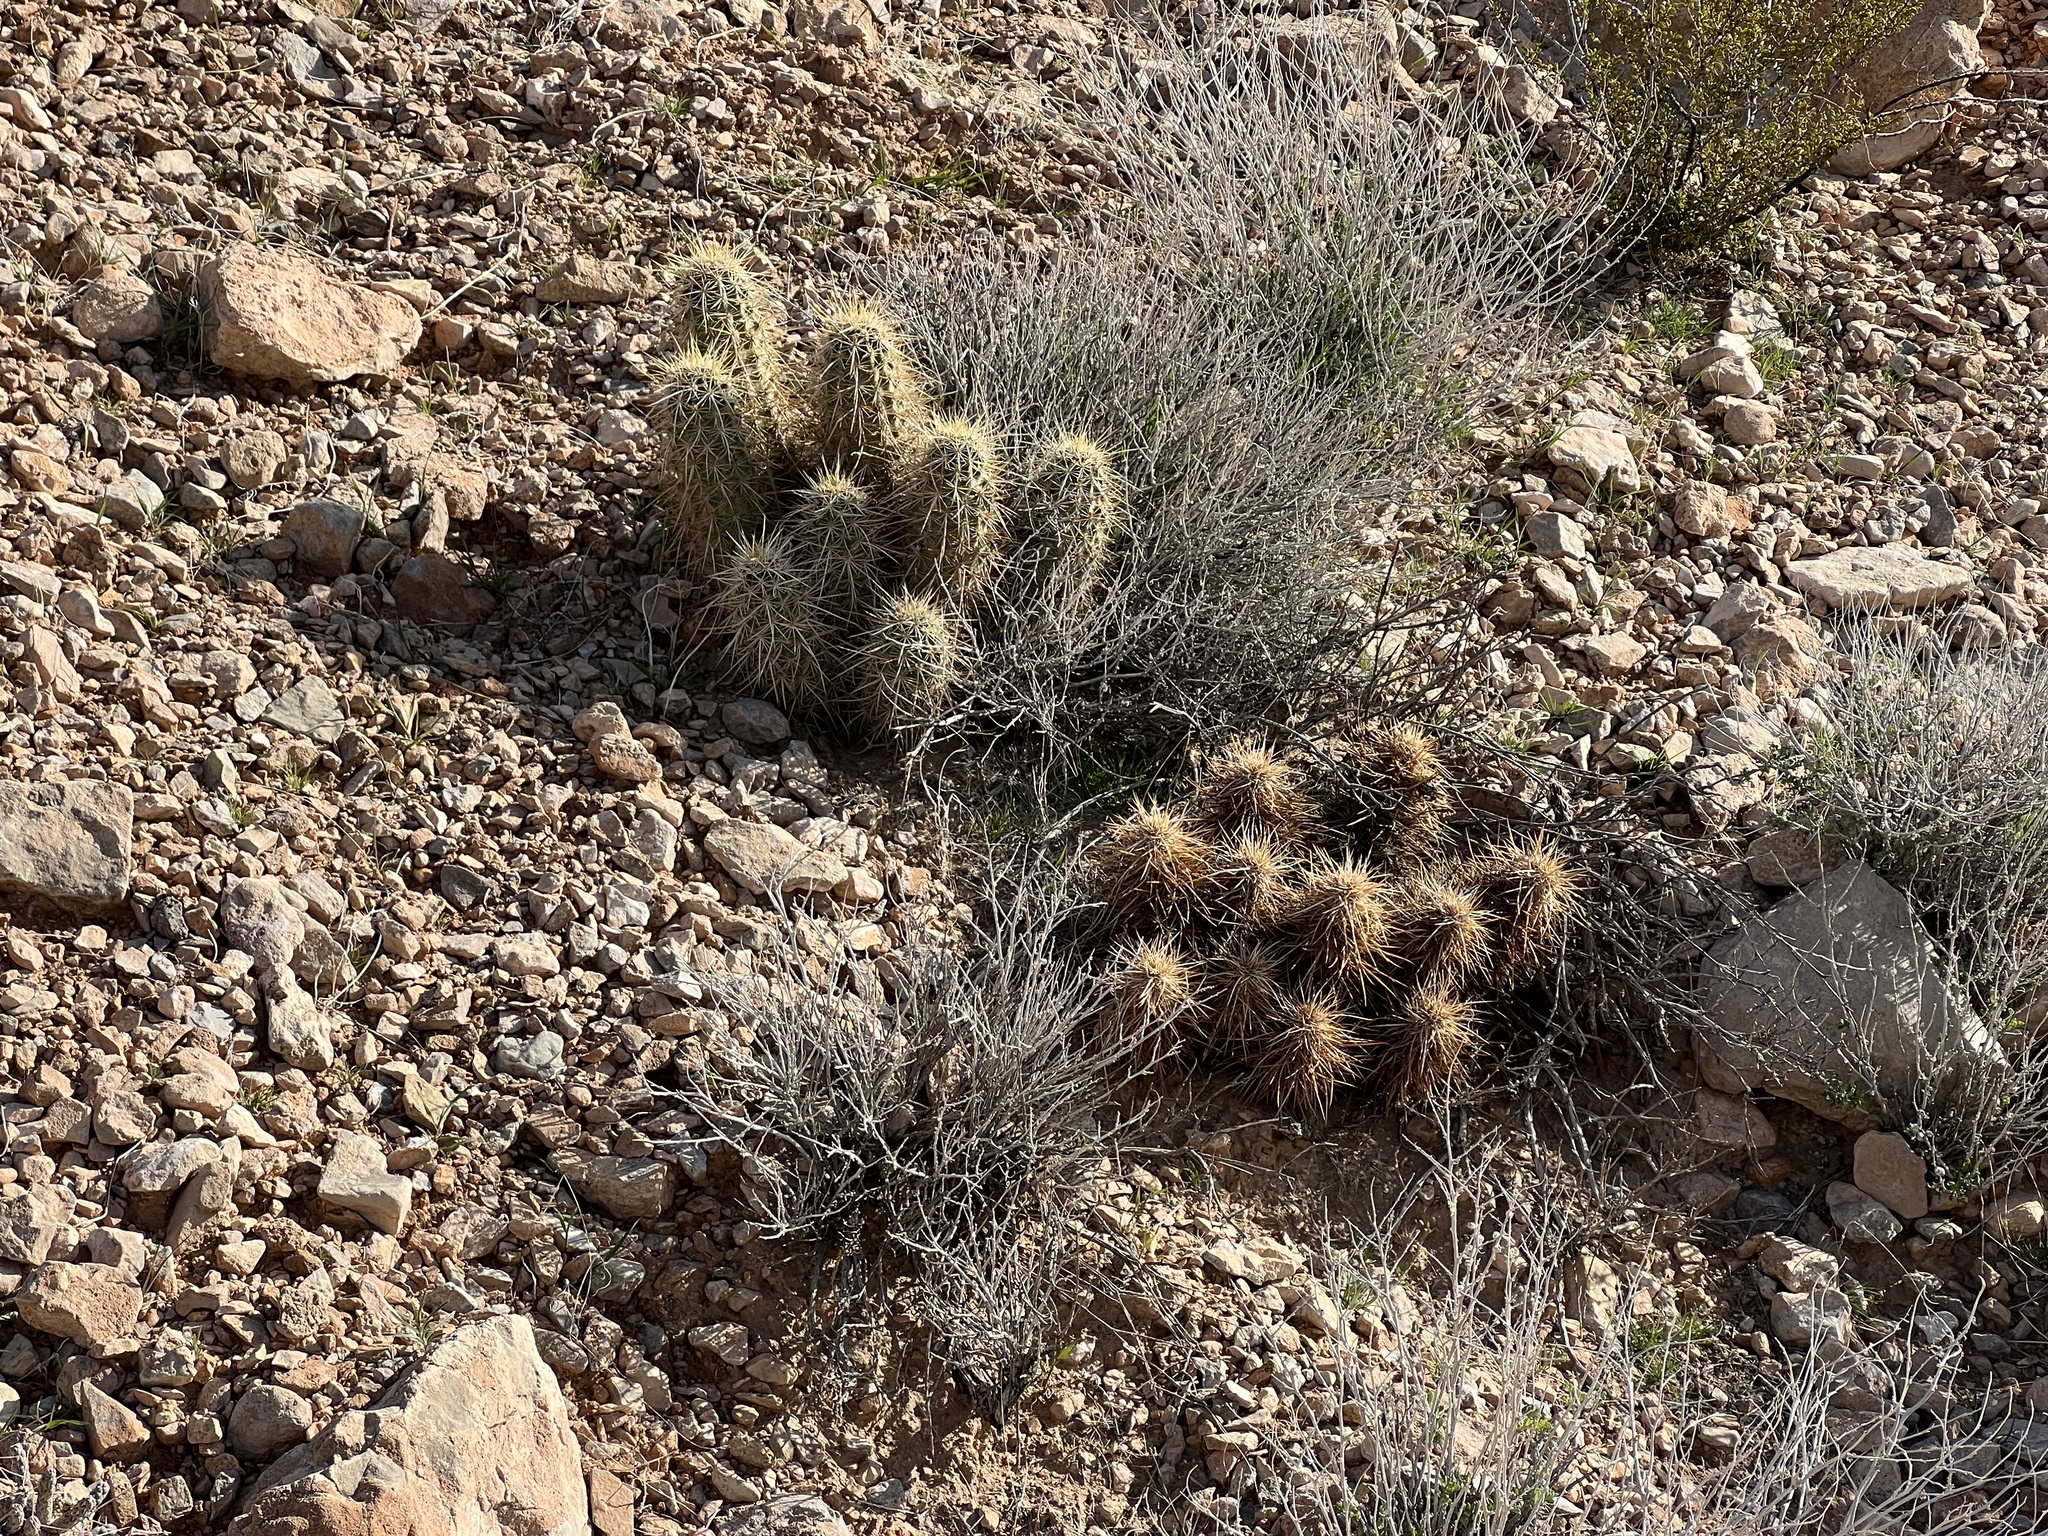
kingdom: Plantae
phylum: Tracheophyta
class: Magnoliopsida
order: Caryophyllales
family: Cactaceae
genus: Echinocereus
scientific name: Echinocereus engelmannii
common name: Engelmann's hedgehog cactus
